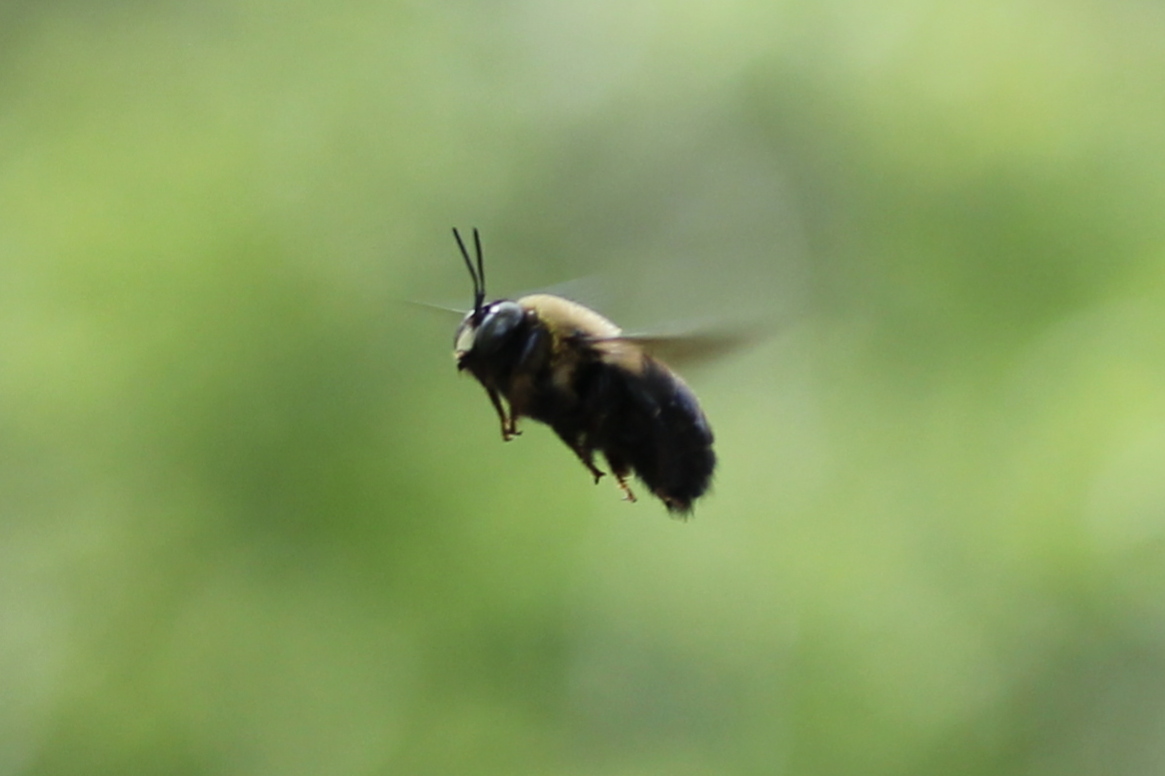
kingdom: Animalia
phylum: Arthropoda
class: Insecta
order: Hymenoptera
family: Apidae
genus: Xylocopa
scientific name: Xylocopa virginica
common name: Carpenter bee
